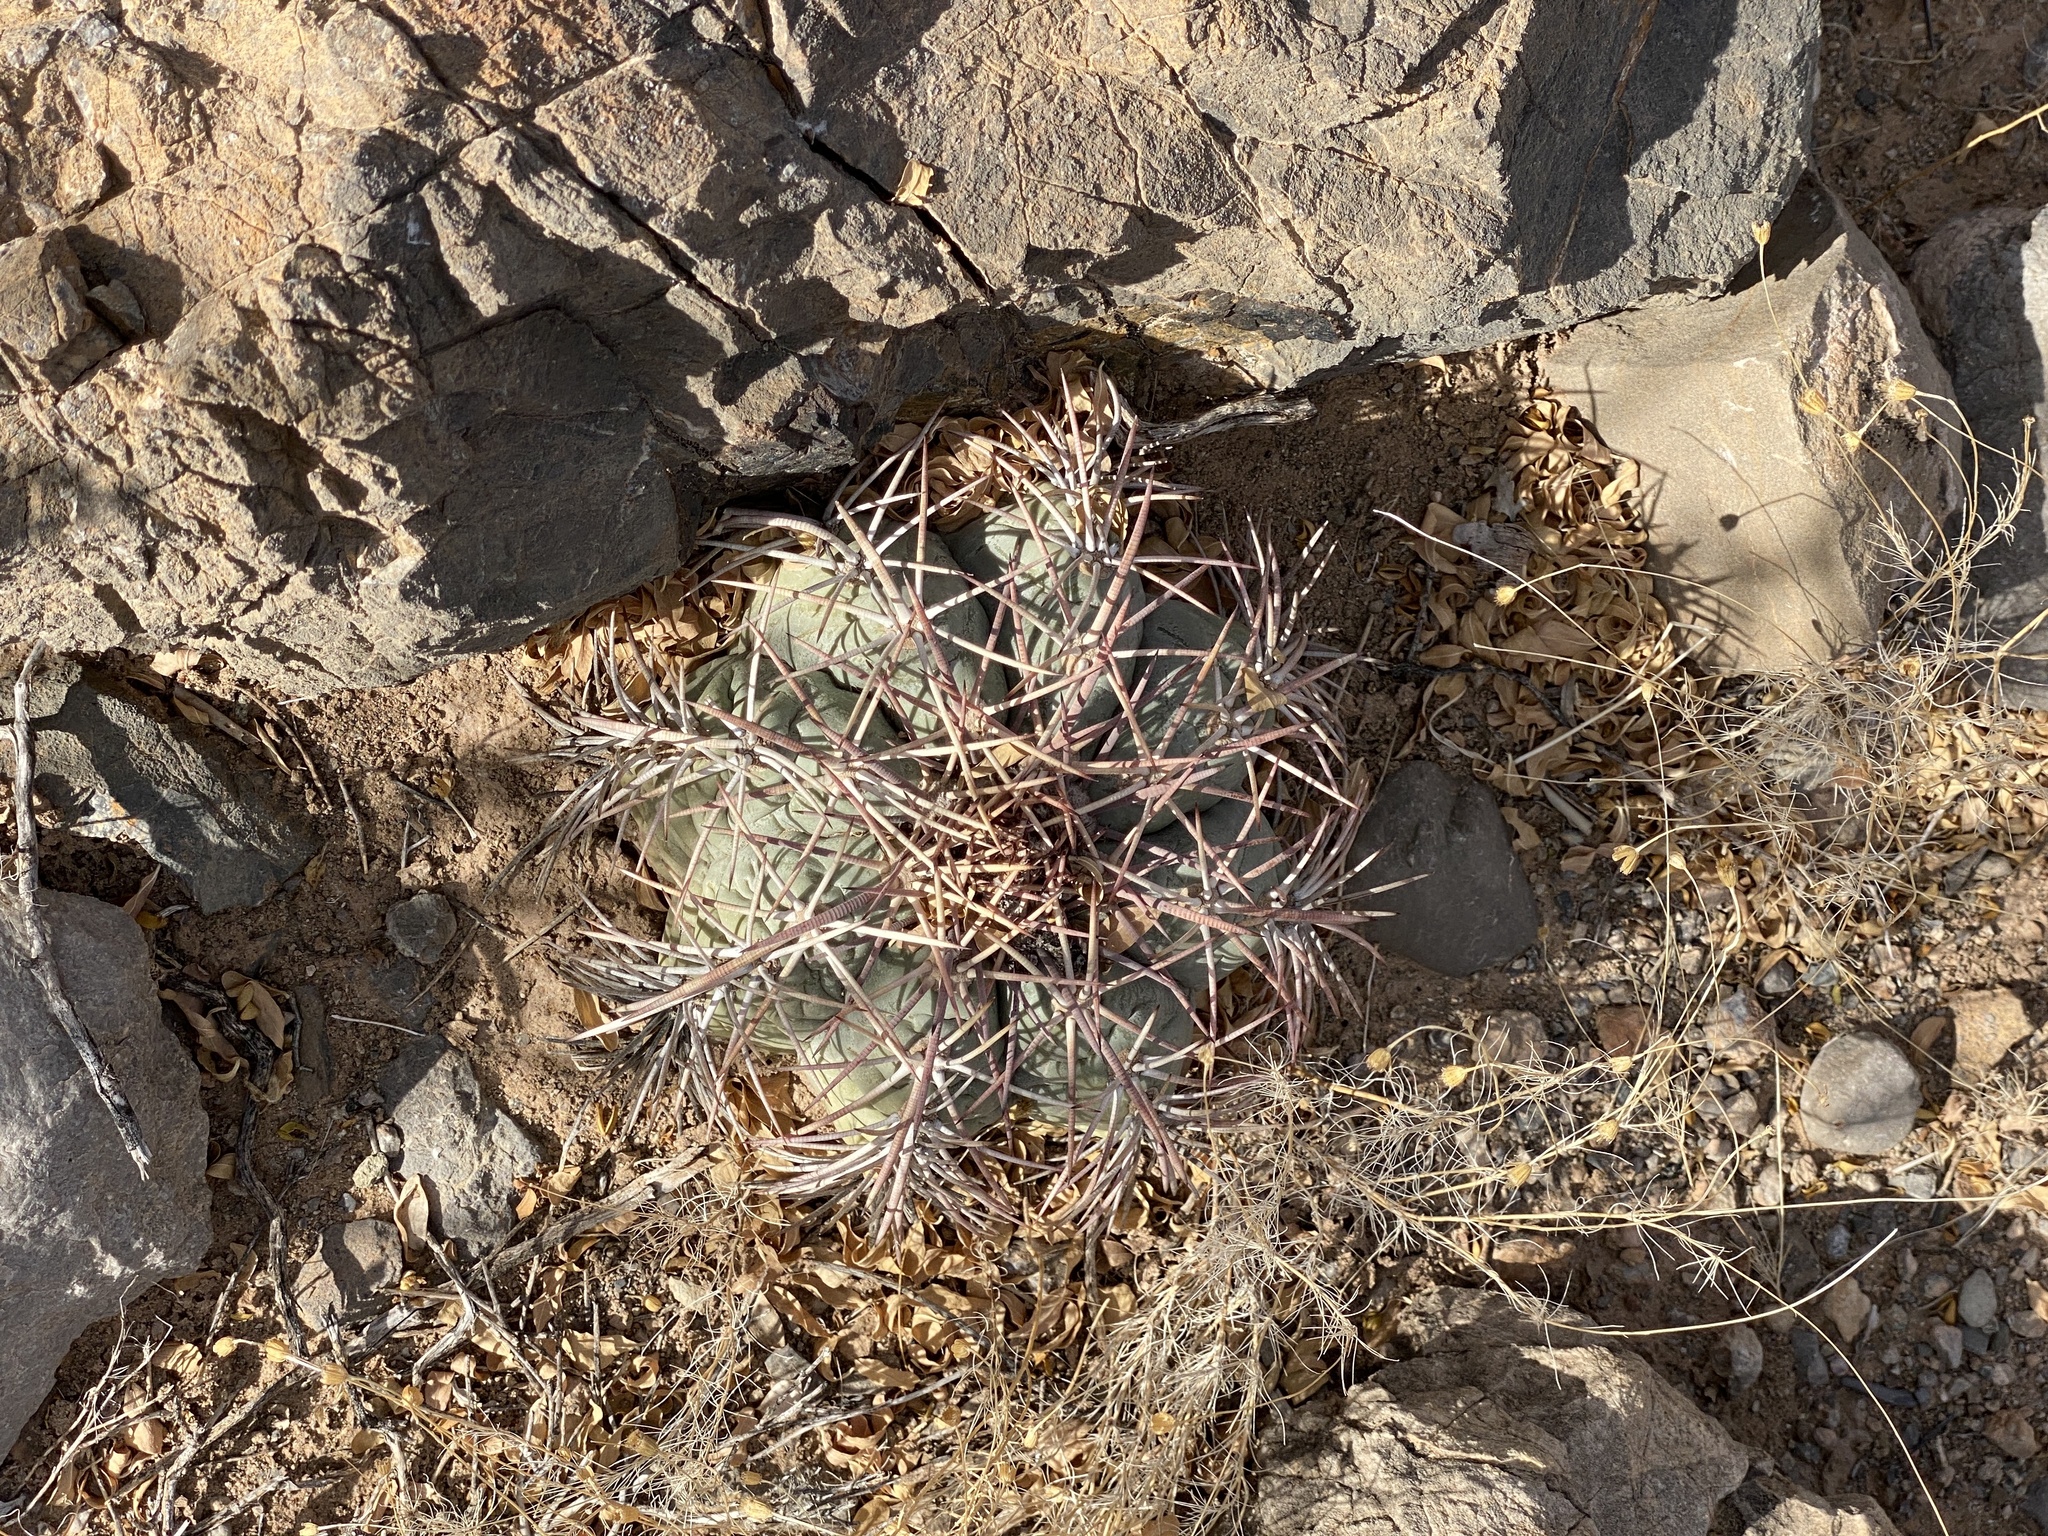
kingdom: Plantae
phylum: Tracheophyta
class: Magnoliopsida
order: Caryophyllales
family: Cactaceae
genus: Echinocactus
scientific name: Echinocactus horizonthalonius
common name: Devilshead
